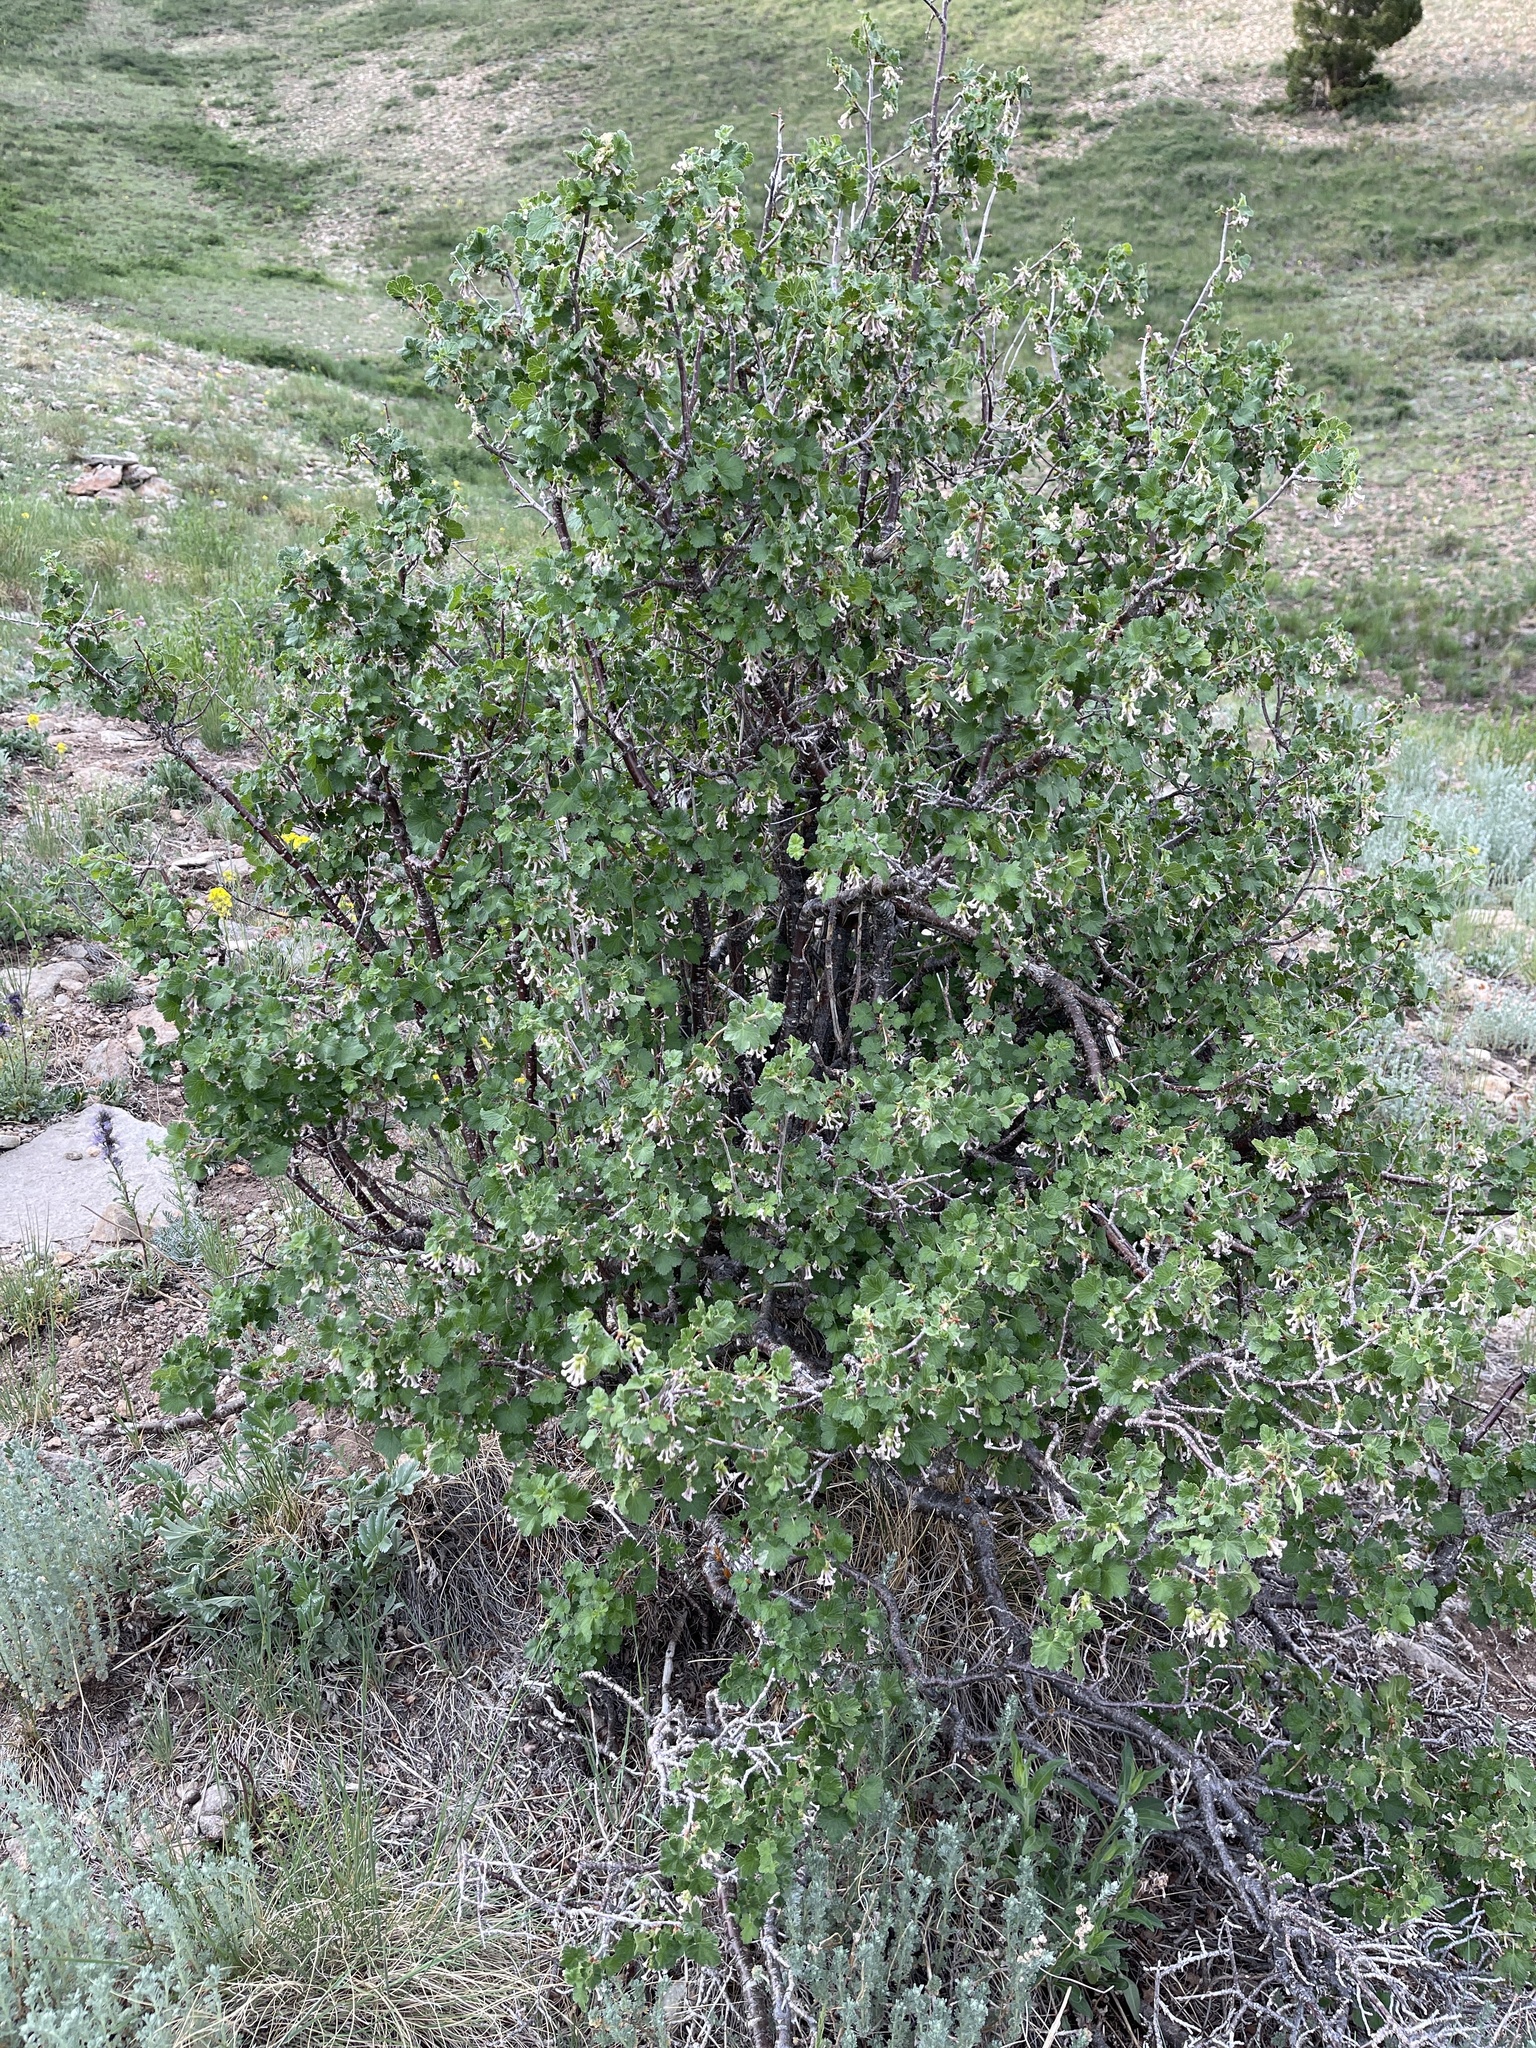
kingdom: Plantae
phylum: Tracheophyta
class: Magnoliopsida
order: Saxifragales
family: Grossulariaceae
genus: Ribes
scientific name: Ribes cereum
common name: Wax currant
